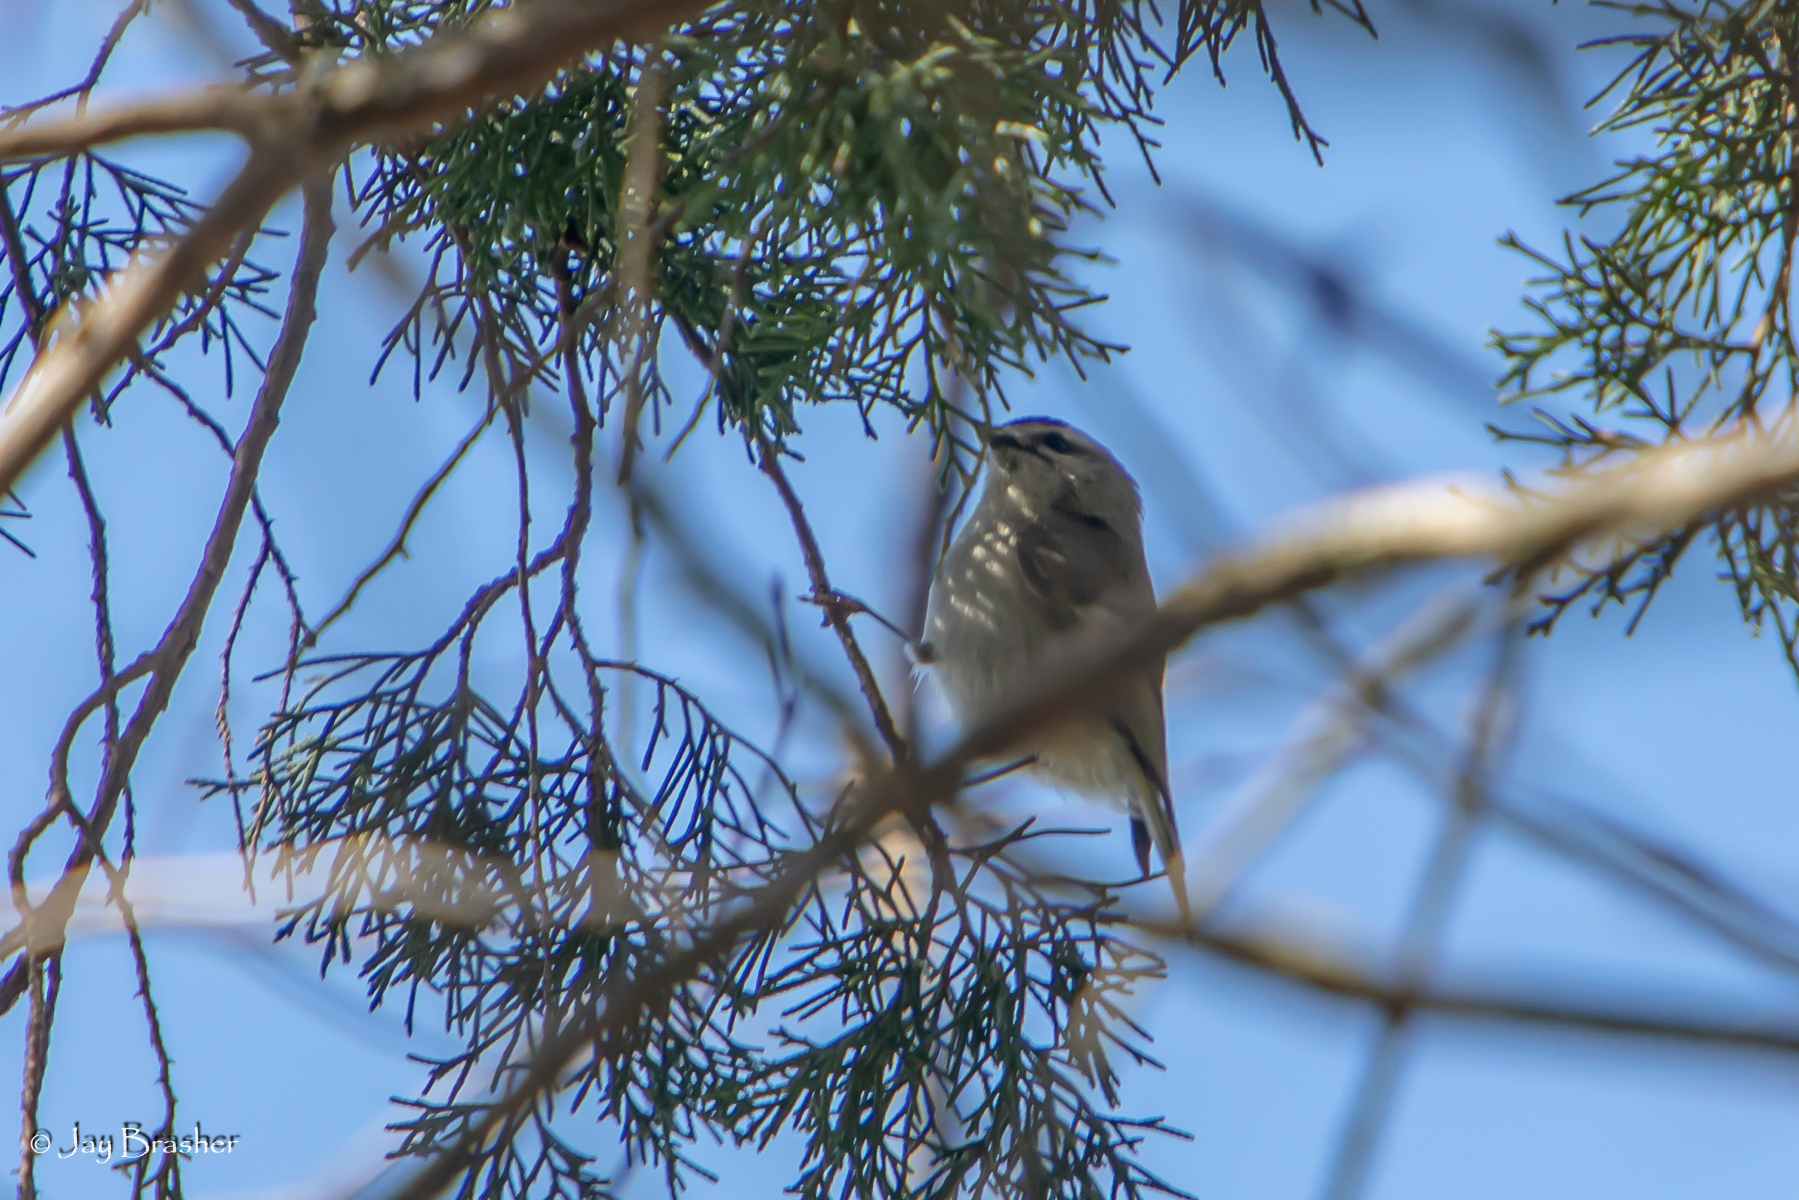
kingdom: Animalia
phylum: Chordata
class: Aves
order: Passeriformes
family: Regulidae
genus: Regulus
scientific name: Regulus satrapa
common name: Golden-crowned kinglet
